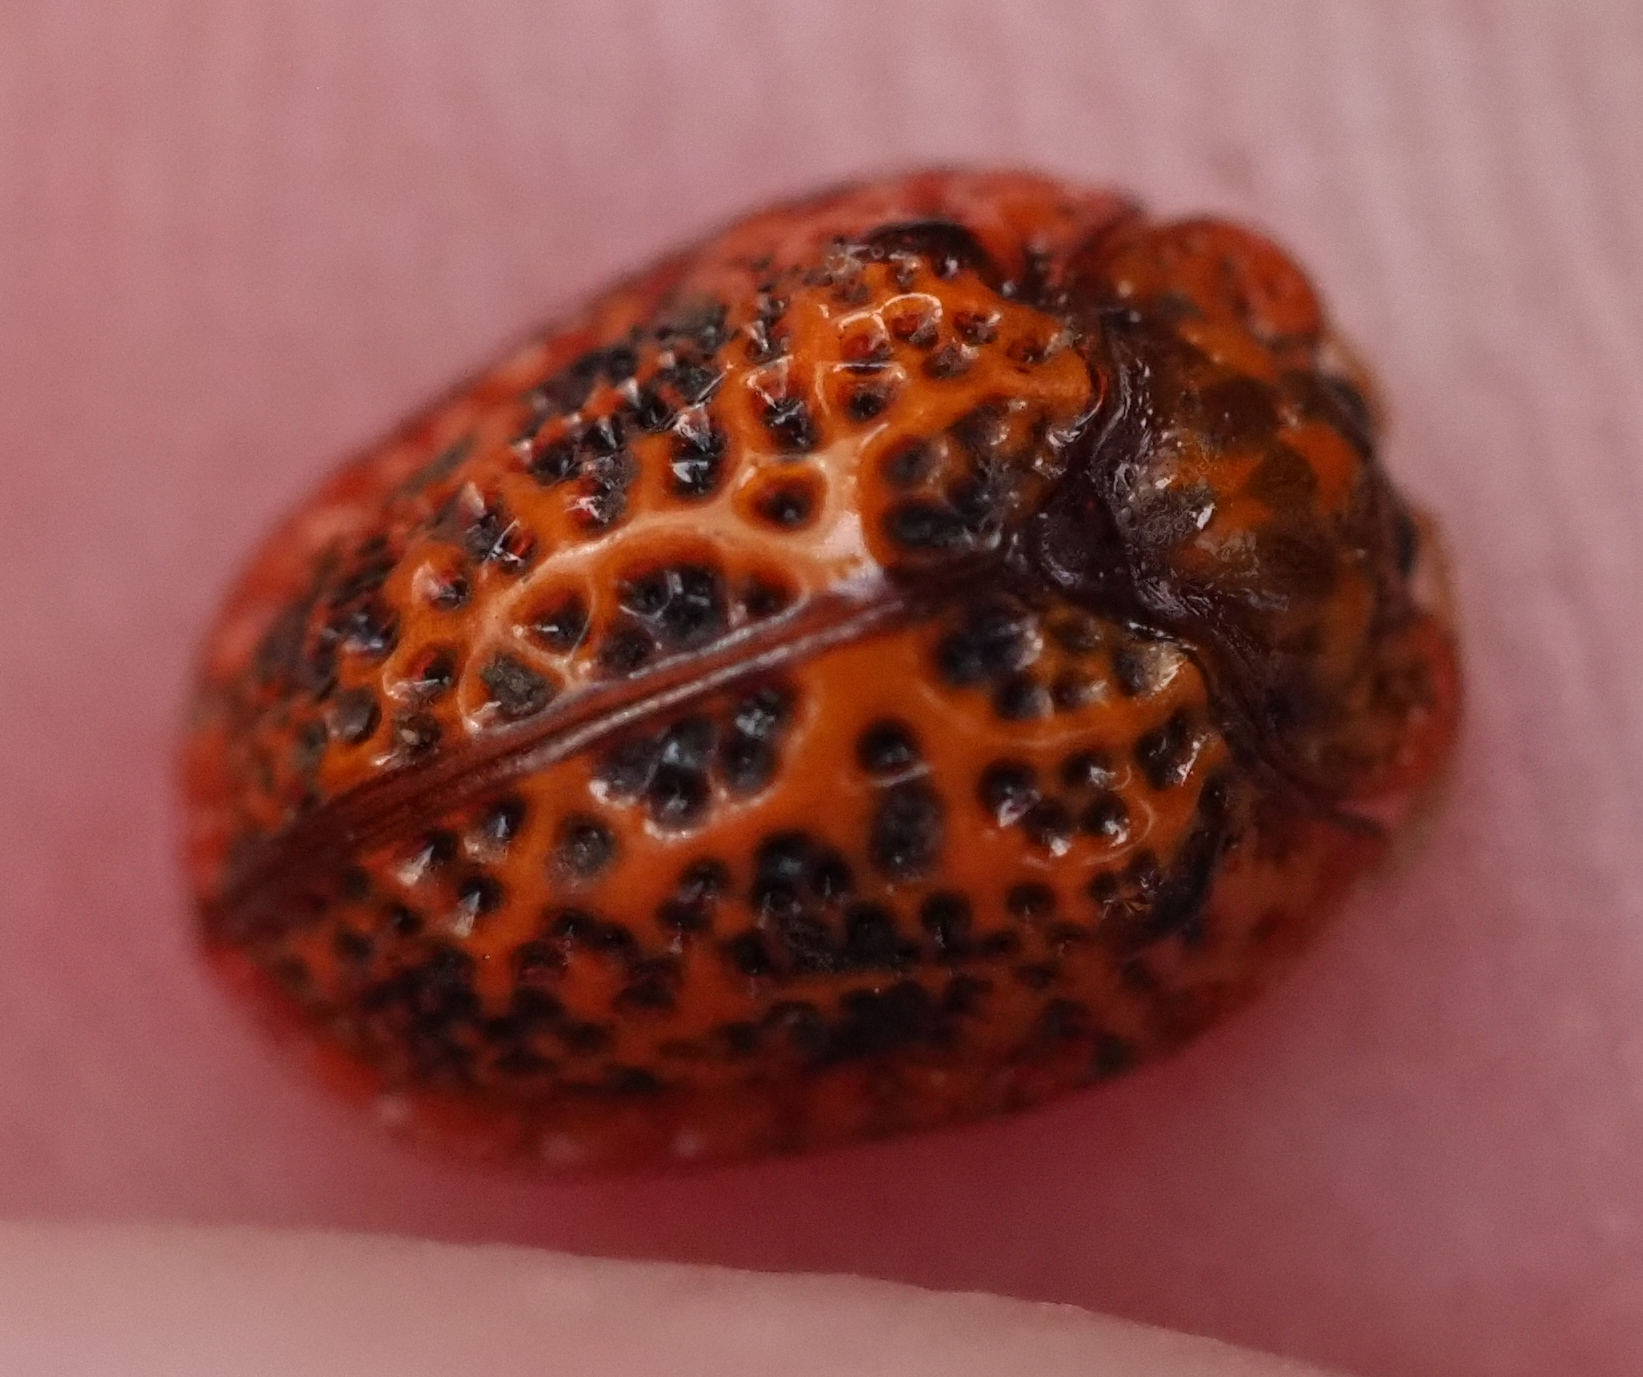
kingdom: Animalia
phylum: Arthropoda
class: Insecta
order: Coleoptera
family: Chrysomelidae
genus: Hemisphaerota
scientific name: Hemisphaerota palmarum
